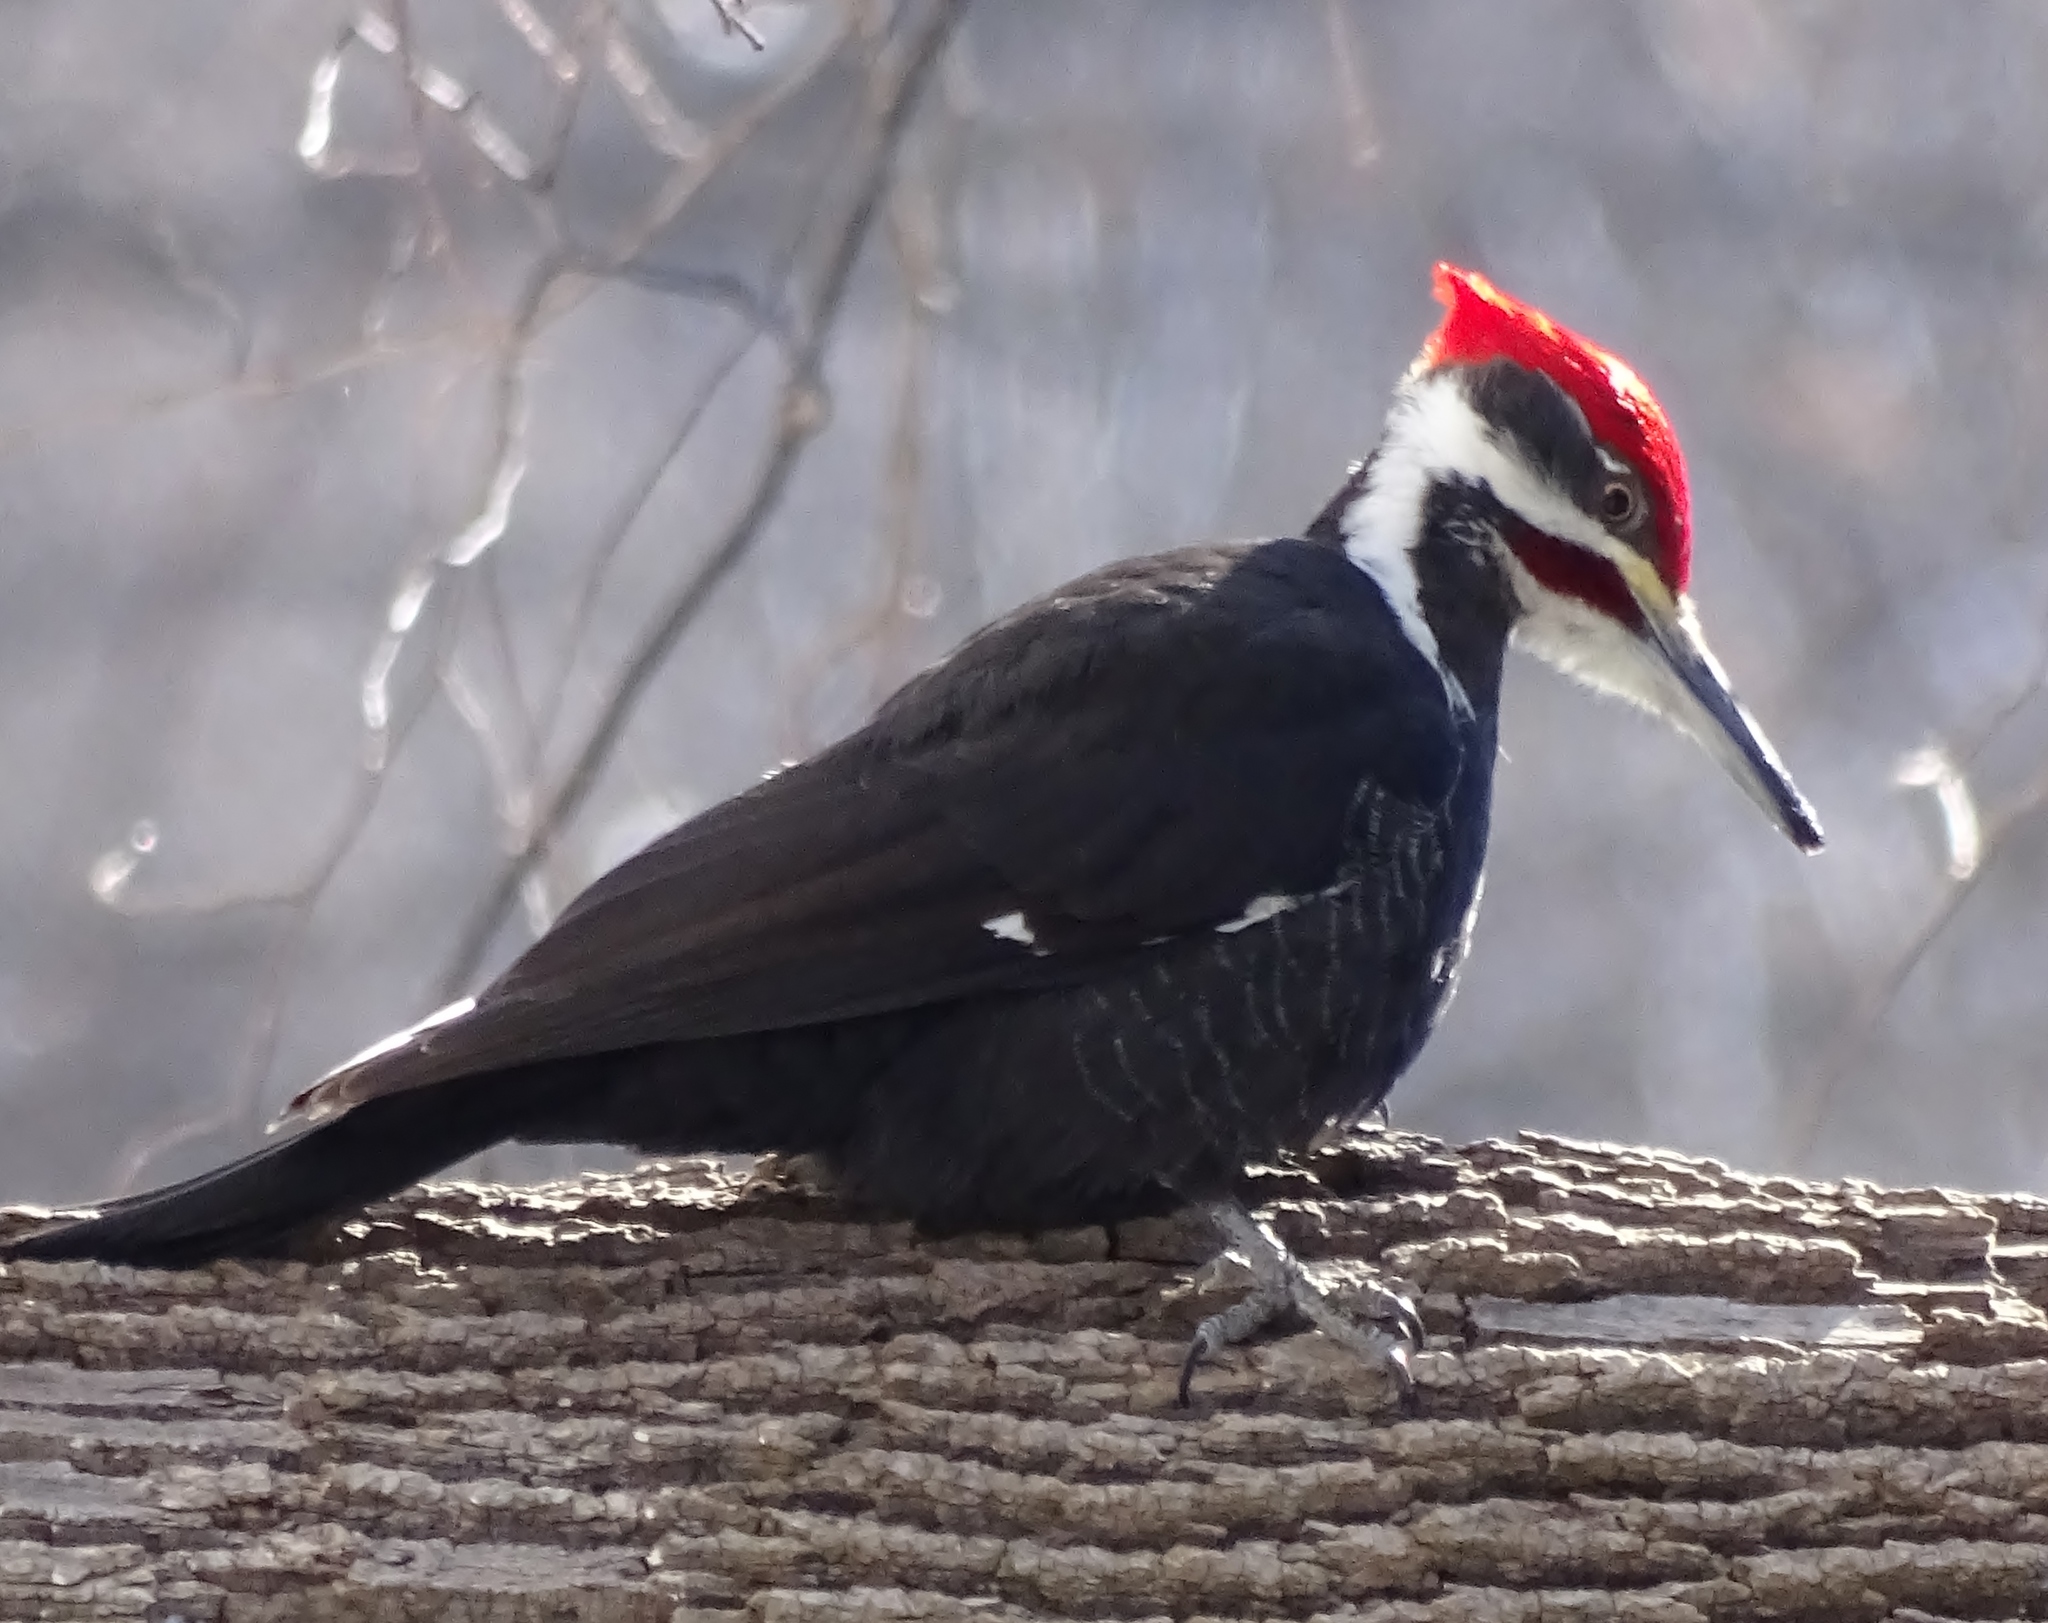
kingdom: Animalia
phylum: Chordata
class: Aves
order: Piciformes
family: Picidae
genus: Dryocopus
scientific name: Dryocopus pileatus
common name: Pileated woodpecker
